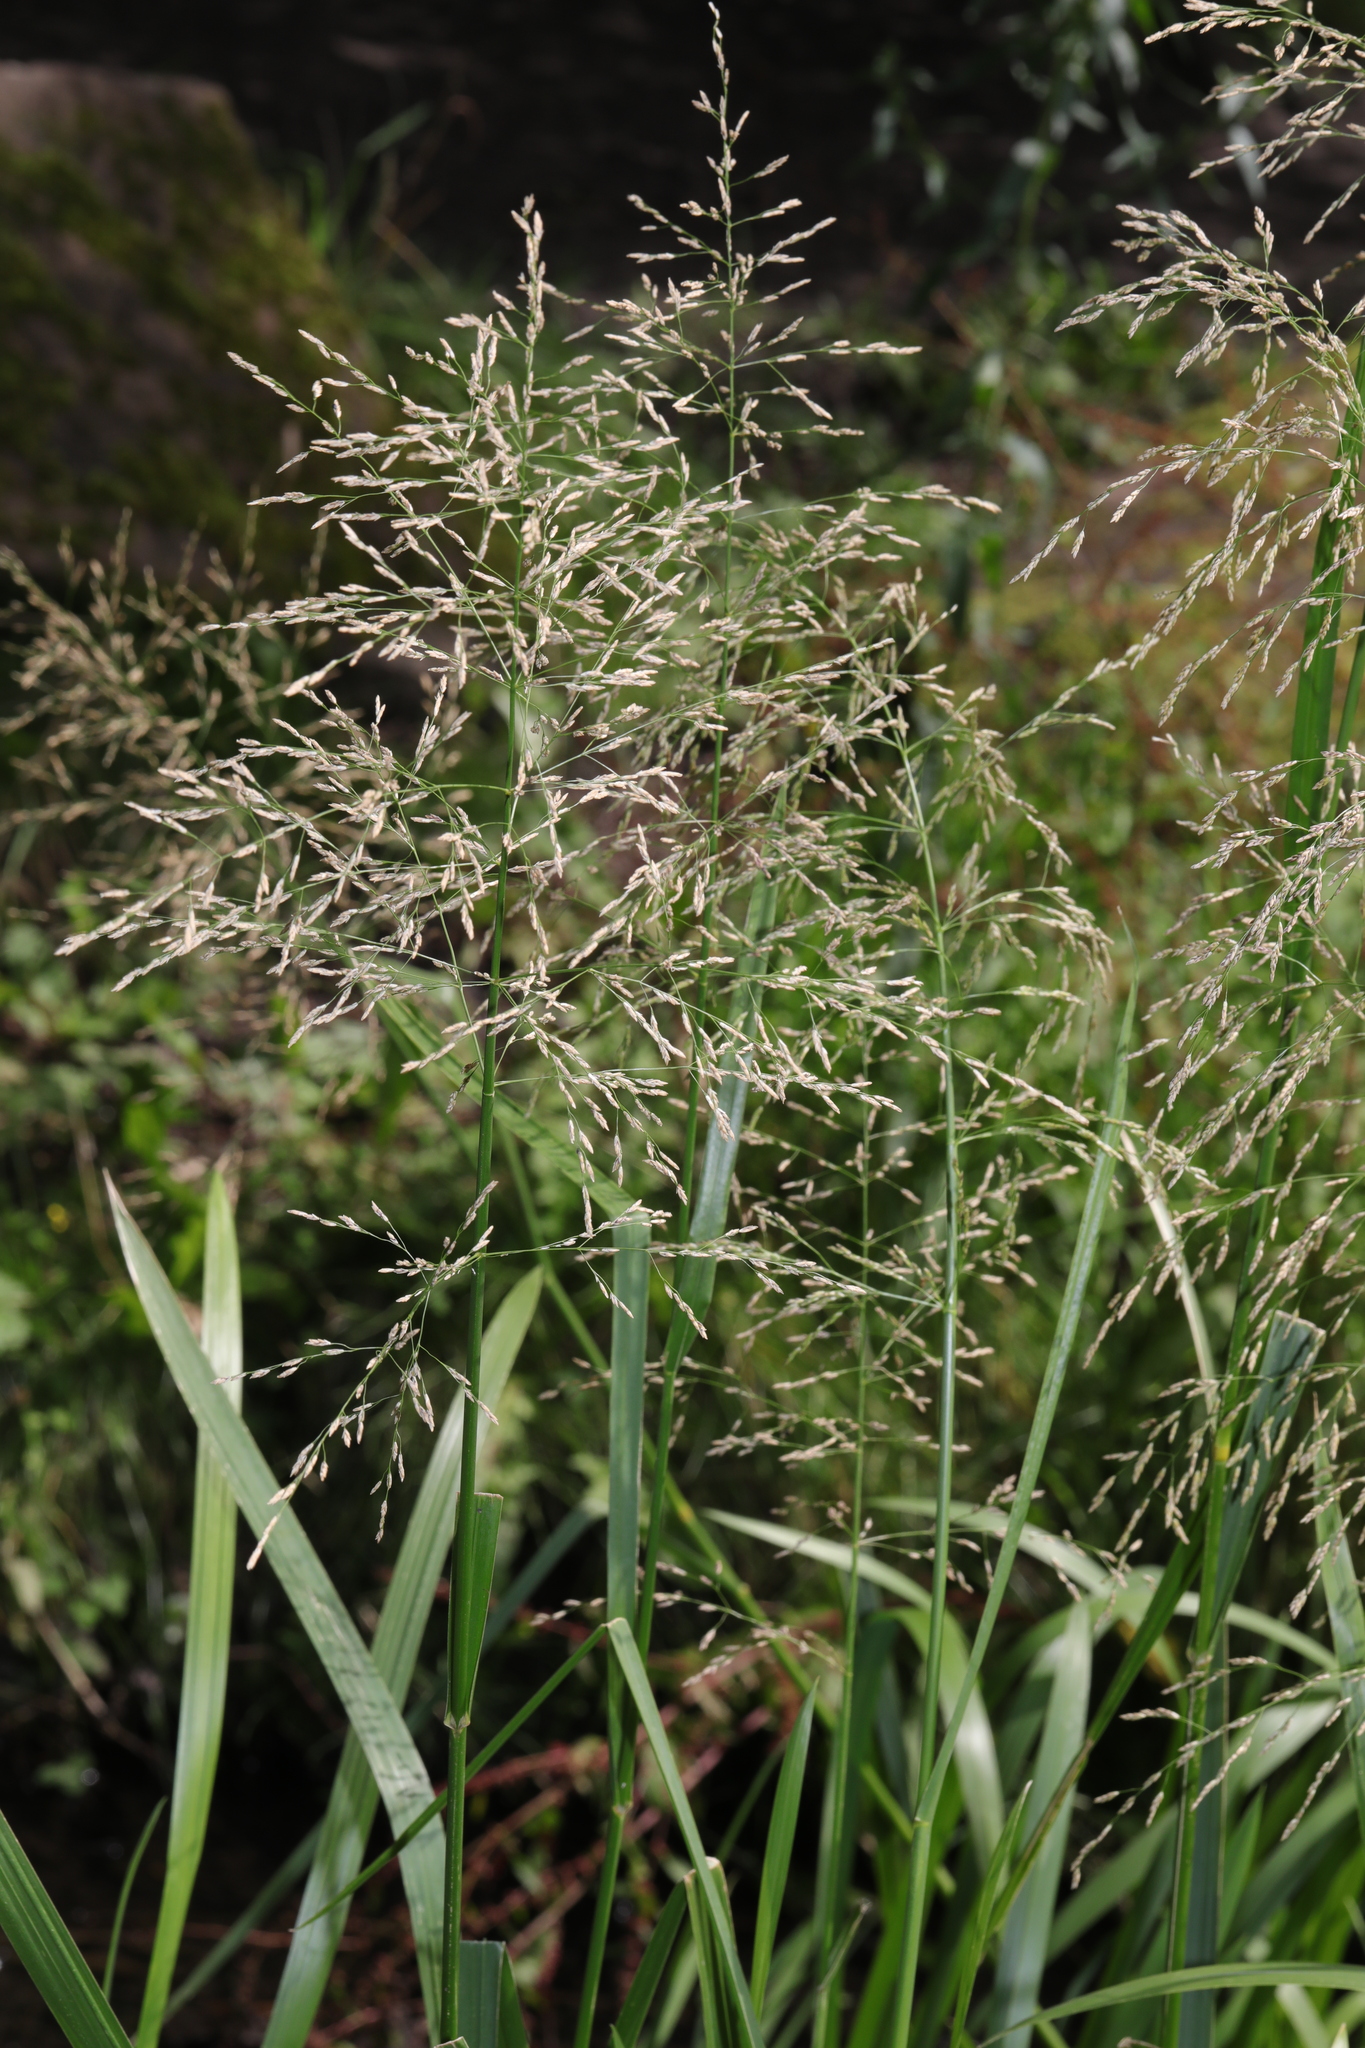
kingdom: Plantae
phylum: Tracheophyta
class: Liliopsida
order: Poales
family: Poaceae
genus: Glyceria
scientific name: Glyceria maxima
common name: Reed mannagrass
